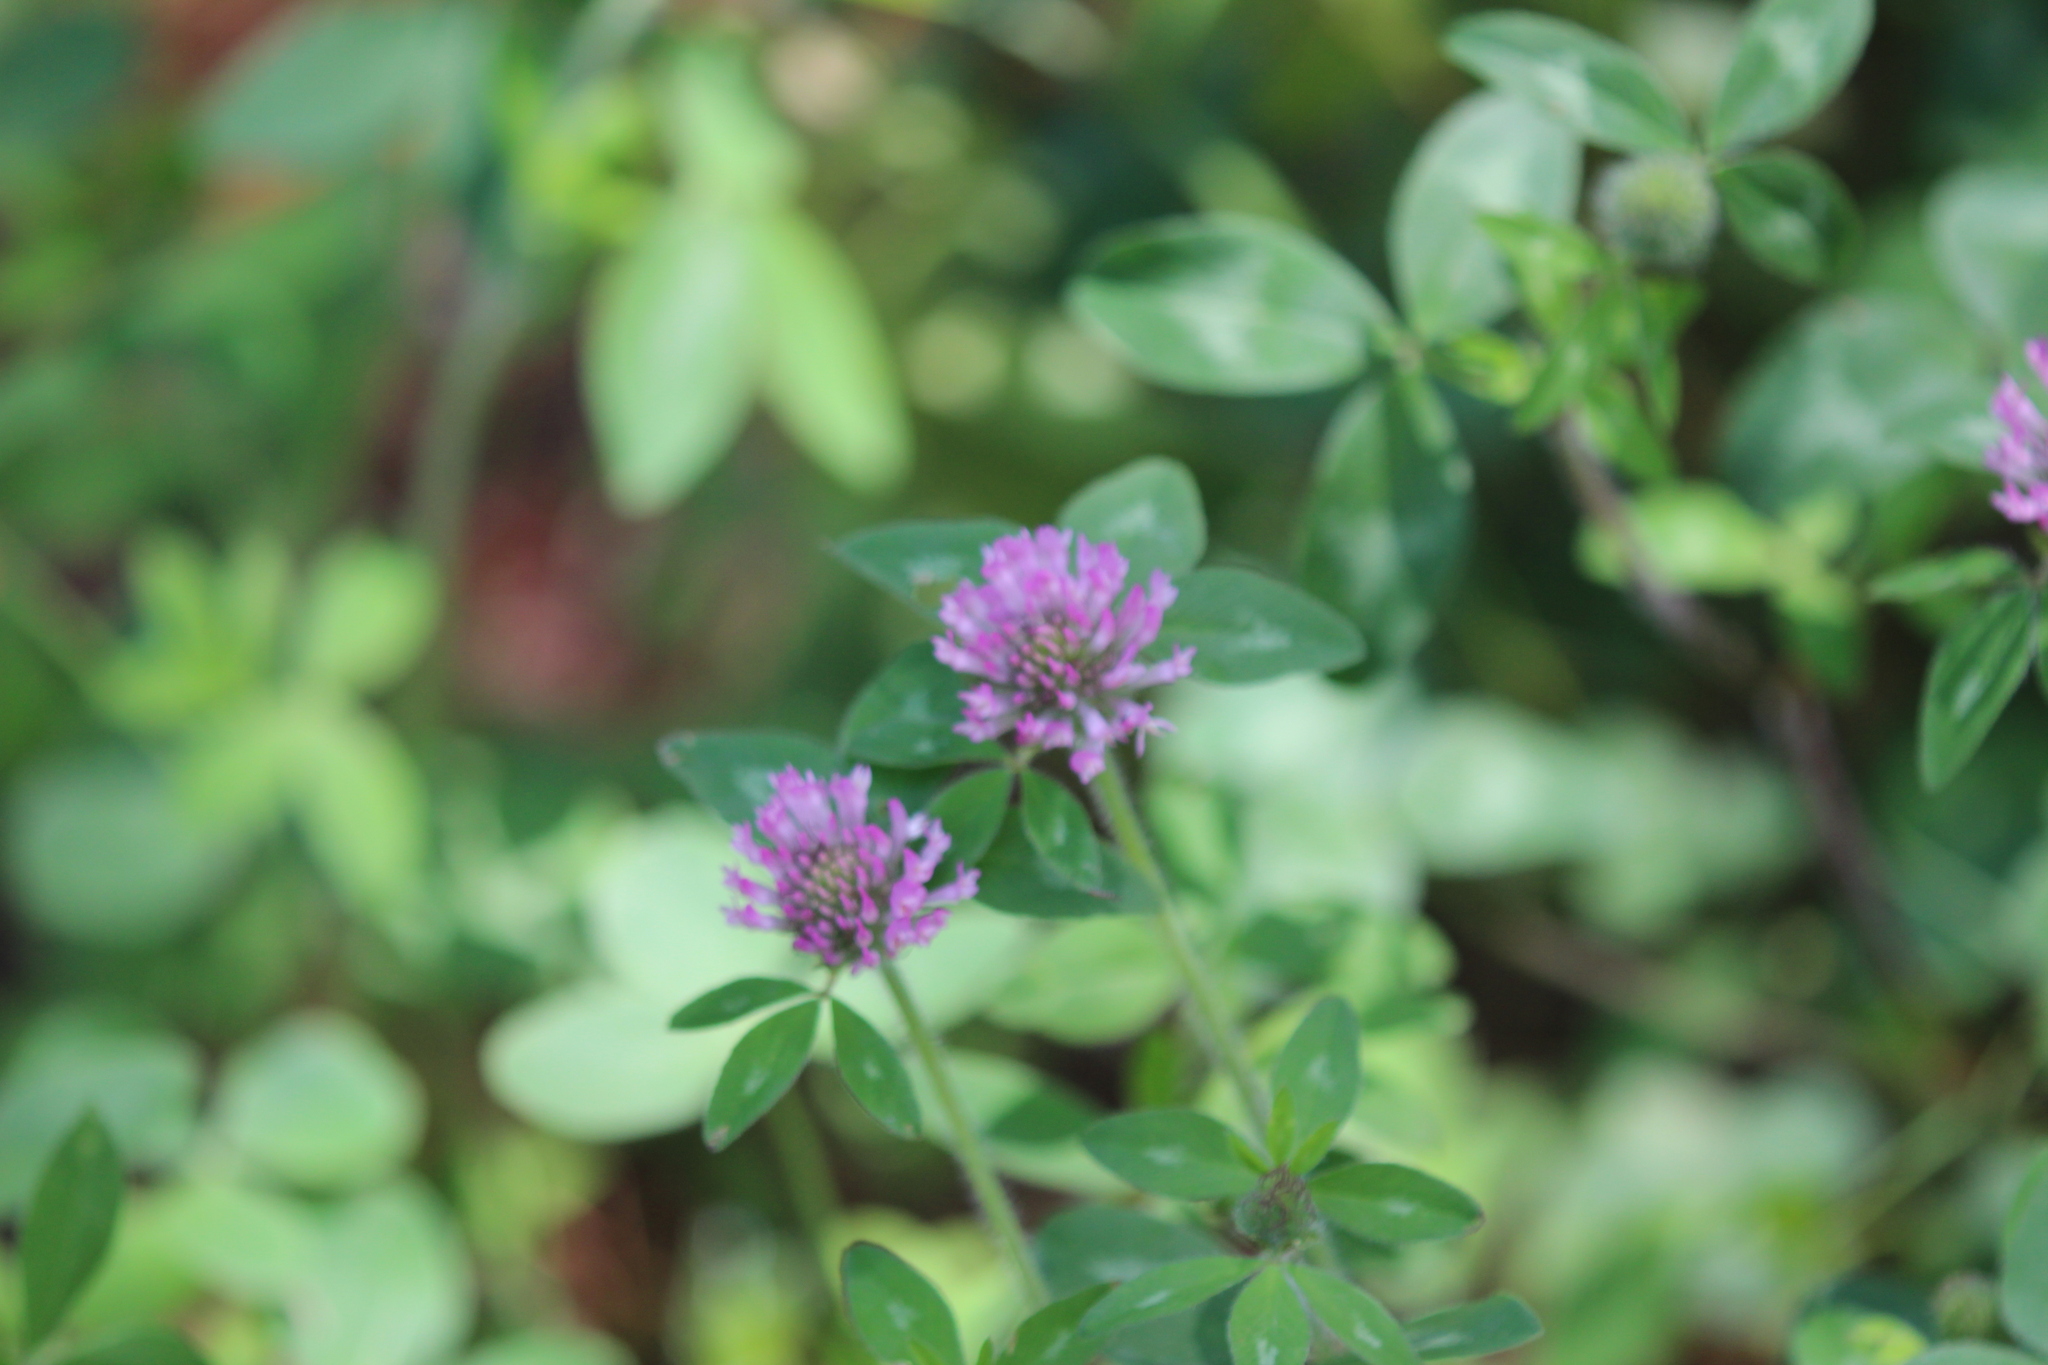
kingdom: Plantae
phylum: Tracheophyta
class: Magnoliopsida
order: Fabales
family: Fabaceae
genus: Trifolium
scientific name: Trifolium pratense
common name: Red clover
